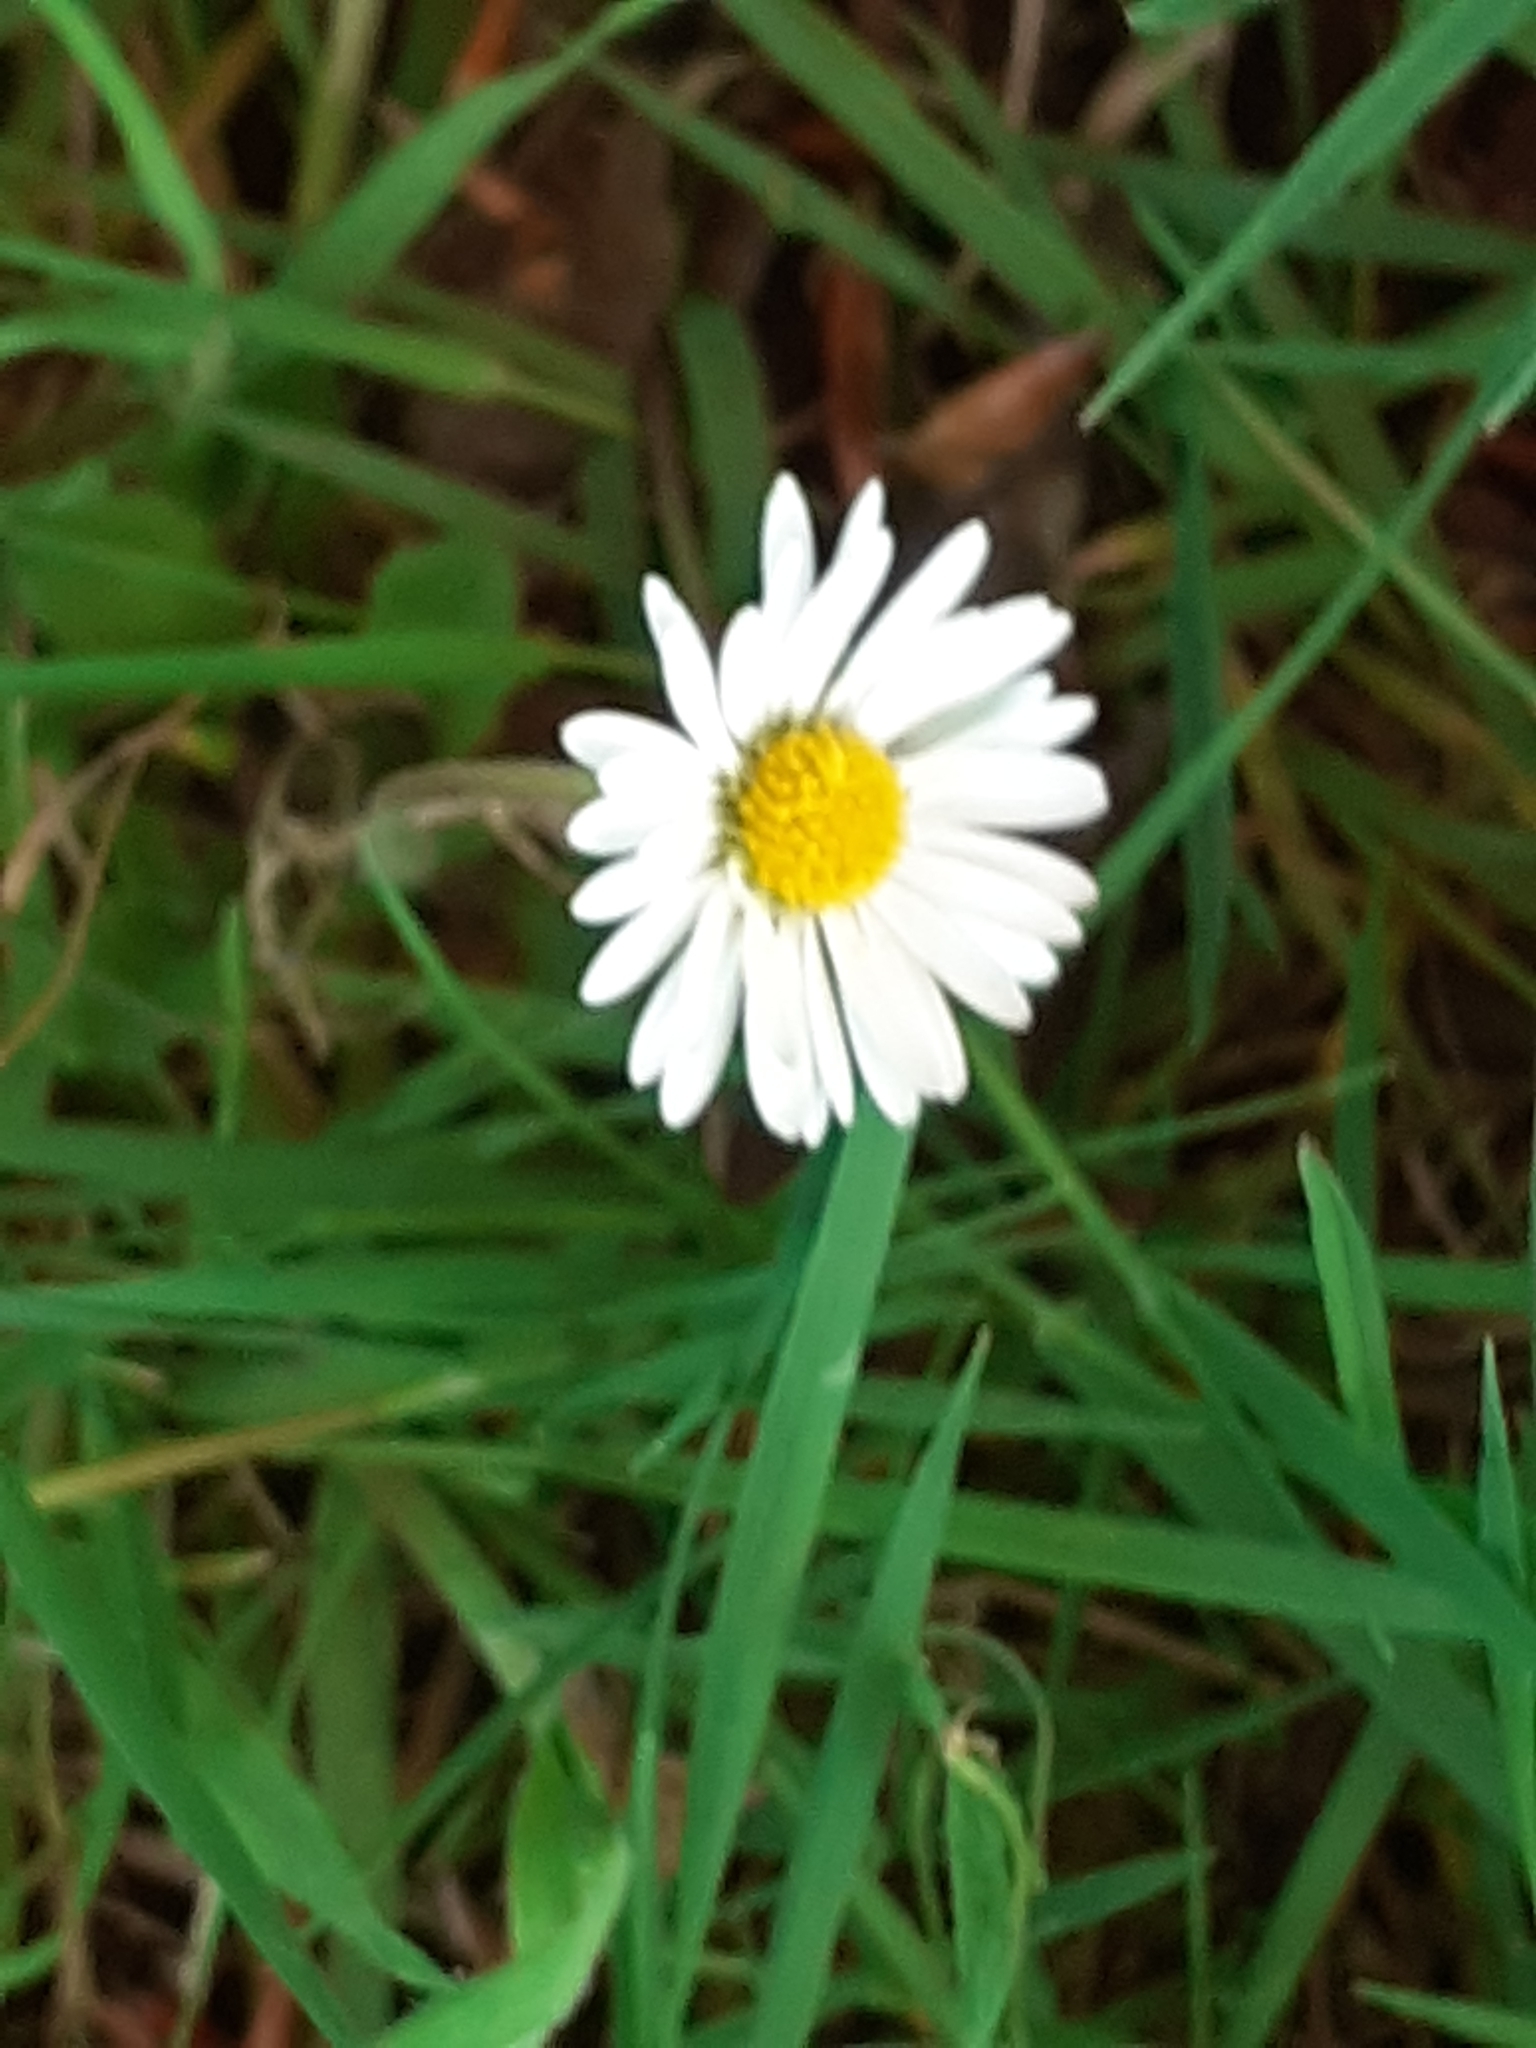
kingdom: Plantae
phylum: Tracheophyta
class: Magnoliopsida
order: Asterales
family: Asteraceae
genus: Bellis
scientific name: Bellis perennis
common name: Lawndaisy
